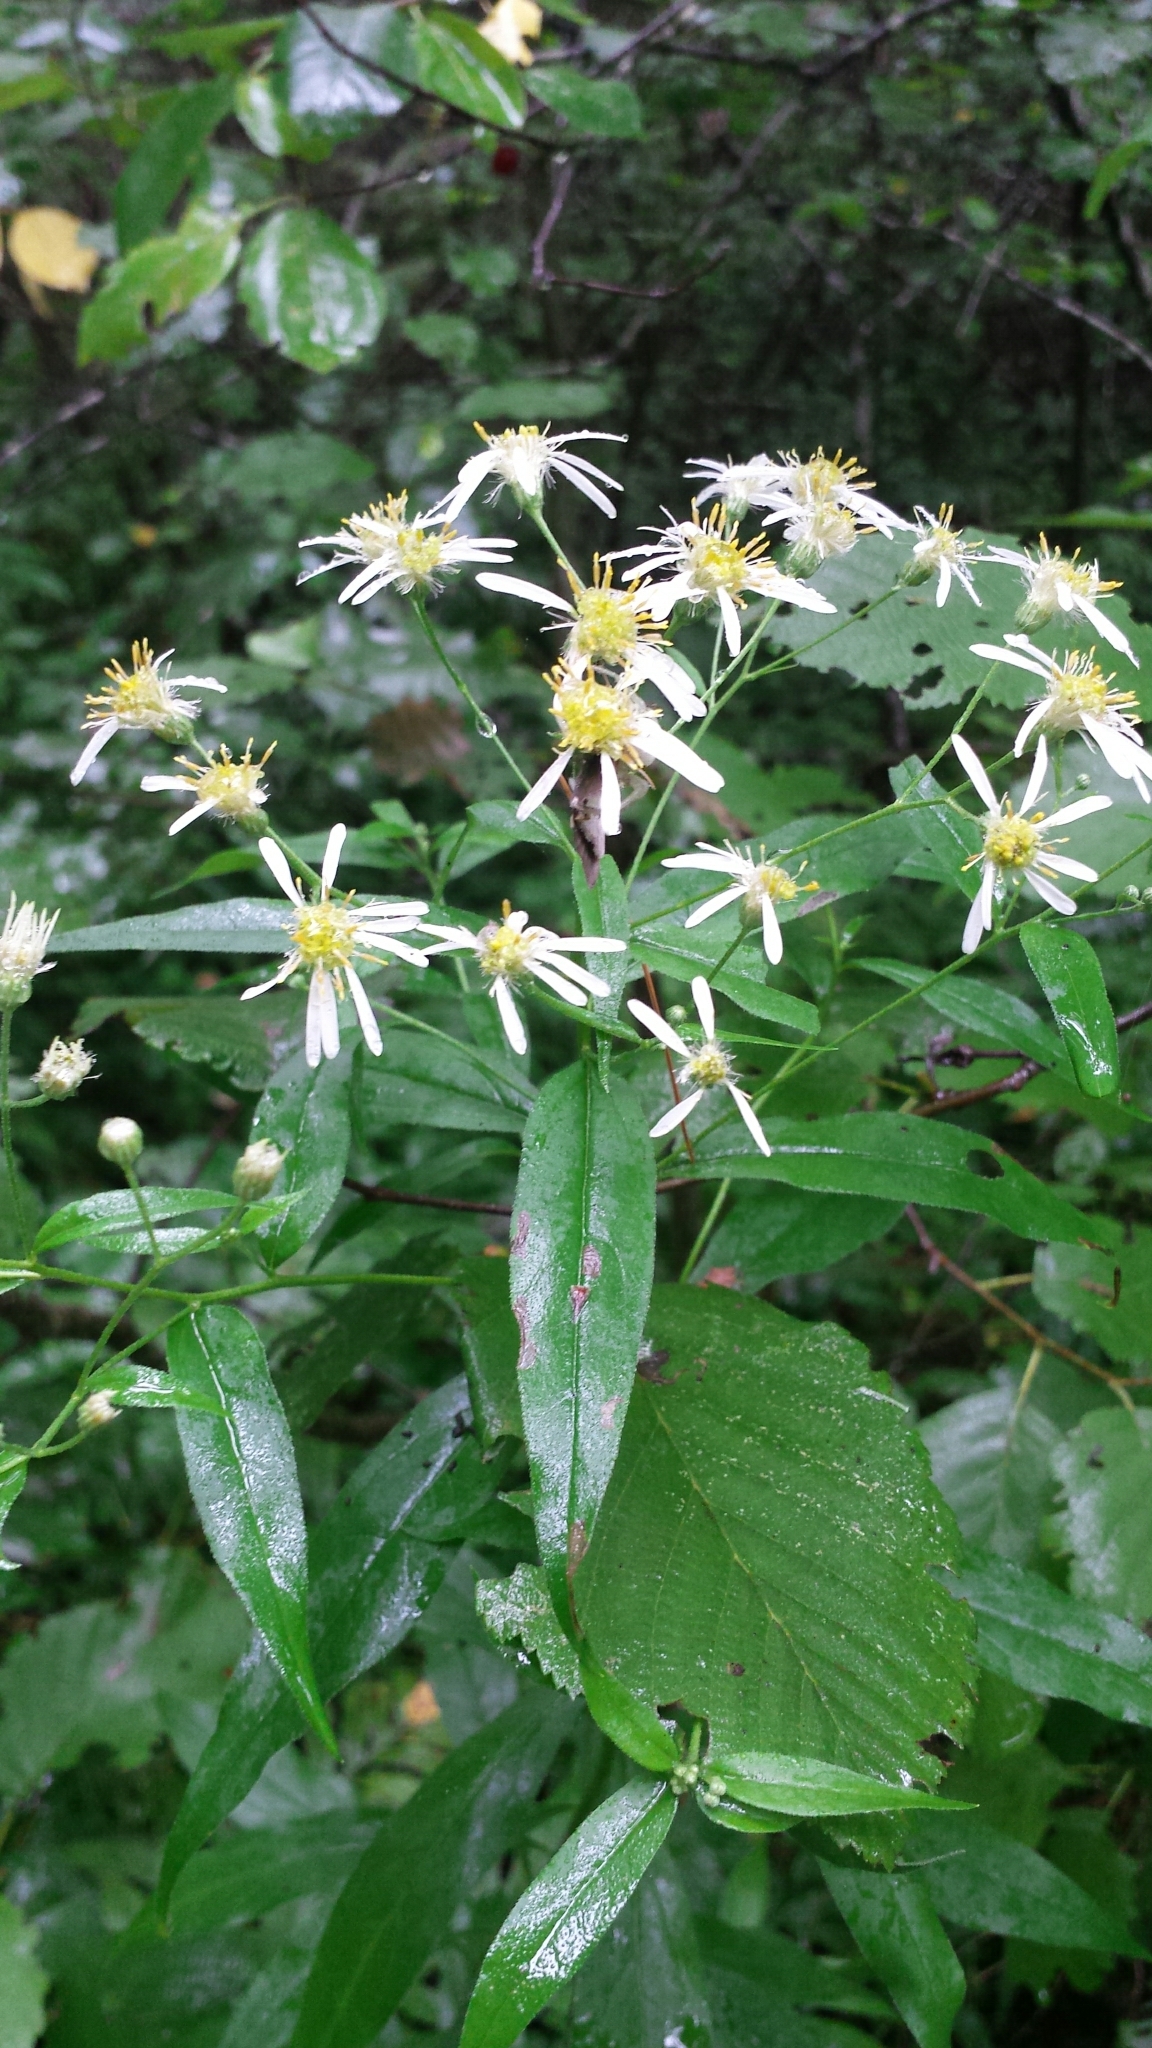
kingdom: Plantae
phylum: Tracheophyta
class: Magnoliopsida
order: Asterales
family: Asteraceae
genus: Doellingeria
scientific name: Doellingeria umbellata
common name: Flat-top white aster
